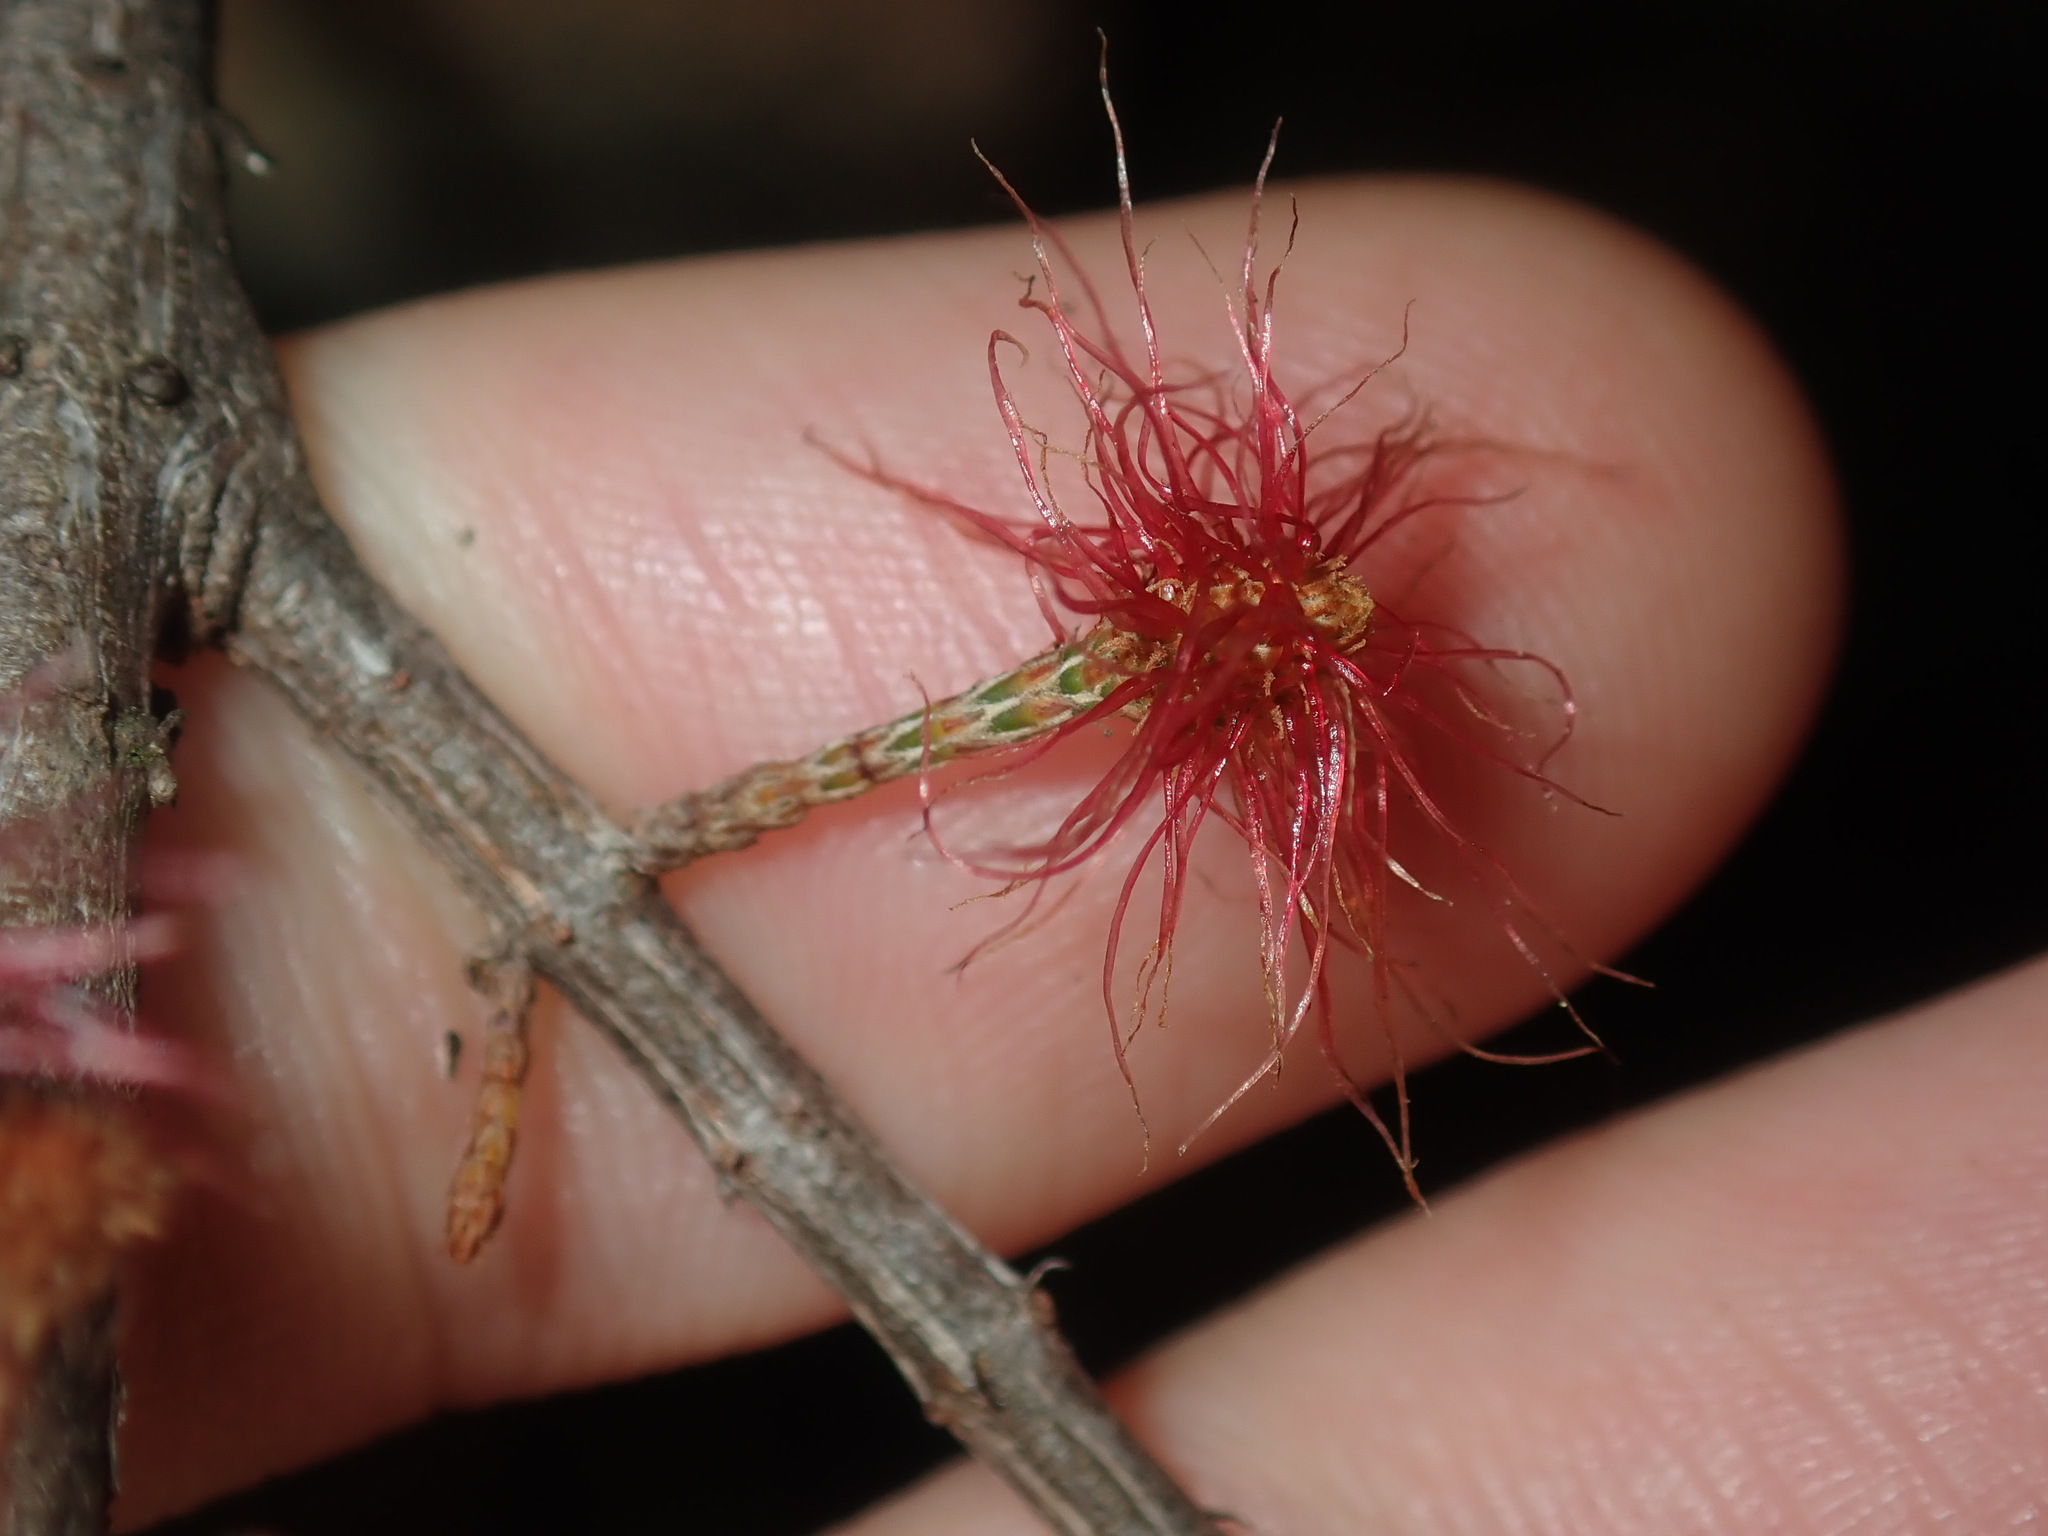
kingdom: Plantae
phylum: Tracheophyta
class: Magnoliopsida
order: Fagales
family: Casuarinaceae
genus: Allocasuarina
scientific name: Allocasuarina littoralis
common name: Black she-oak
